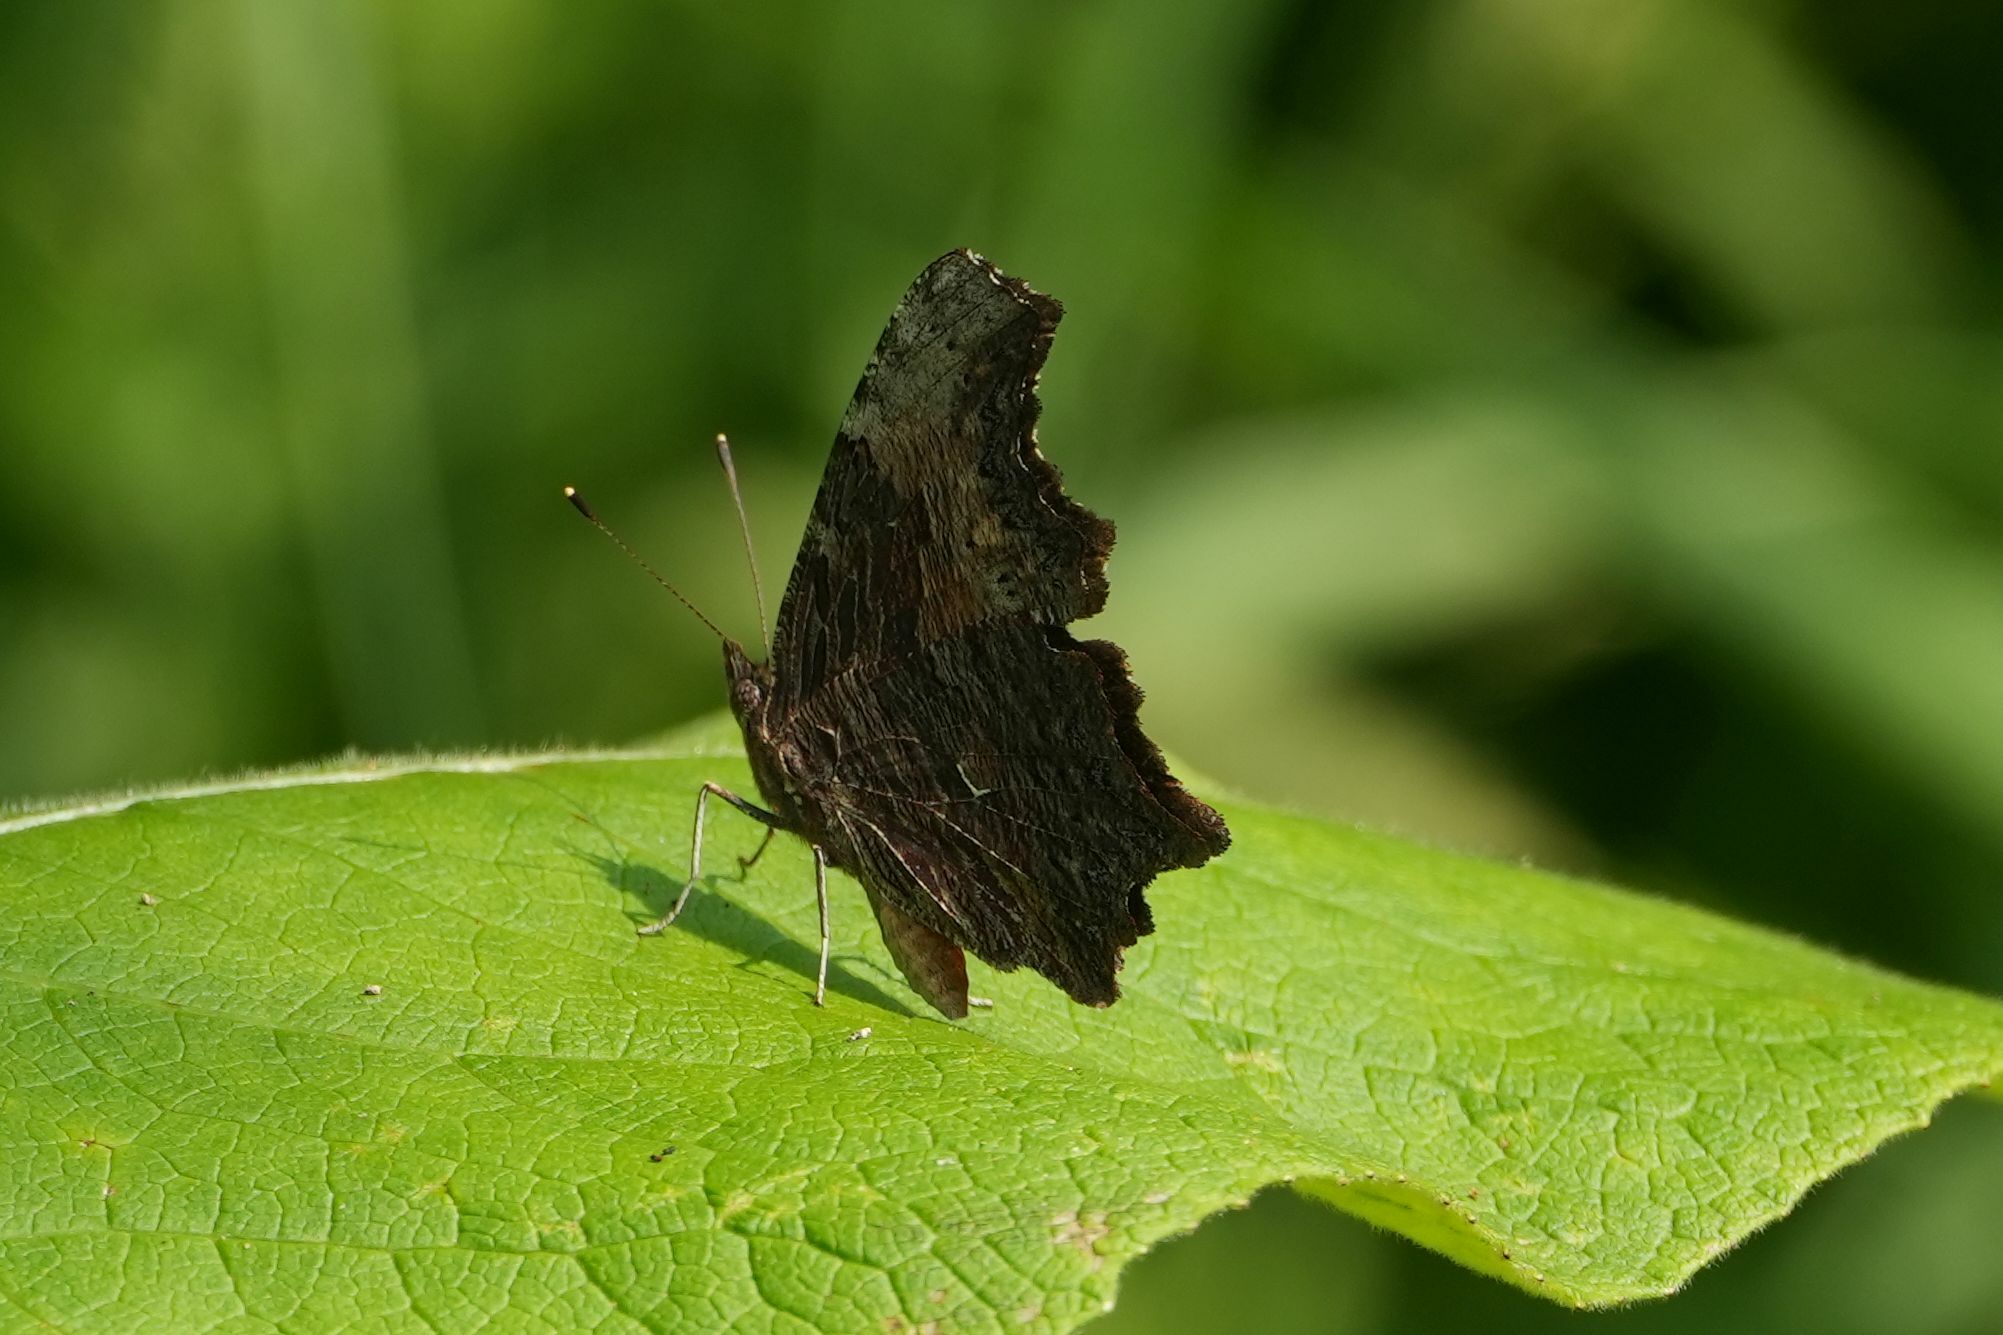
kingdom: Animalia
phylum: Arthropoda
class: Insecta
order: Lepidoptera
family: Nymphalidae
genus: Polygonia
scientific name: Polygonia progne
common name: Gray comma
